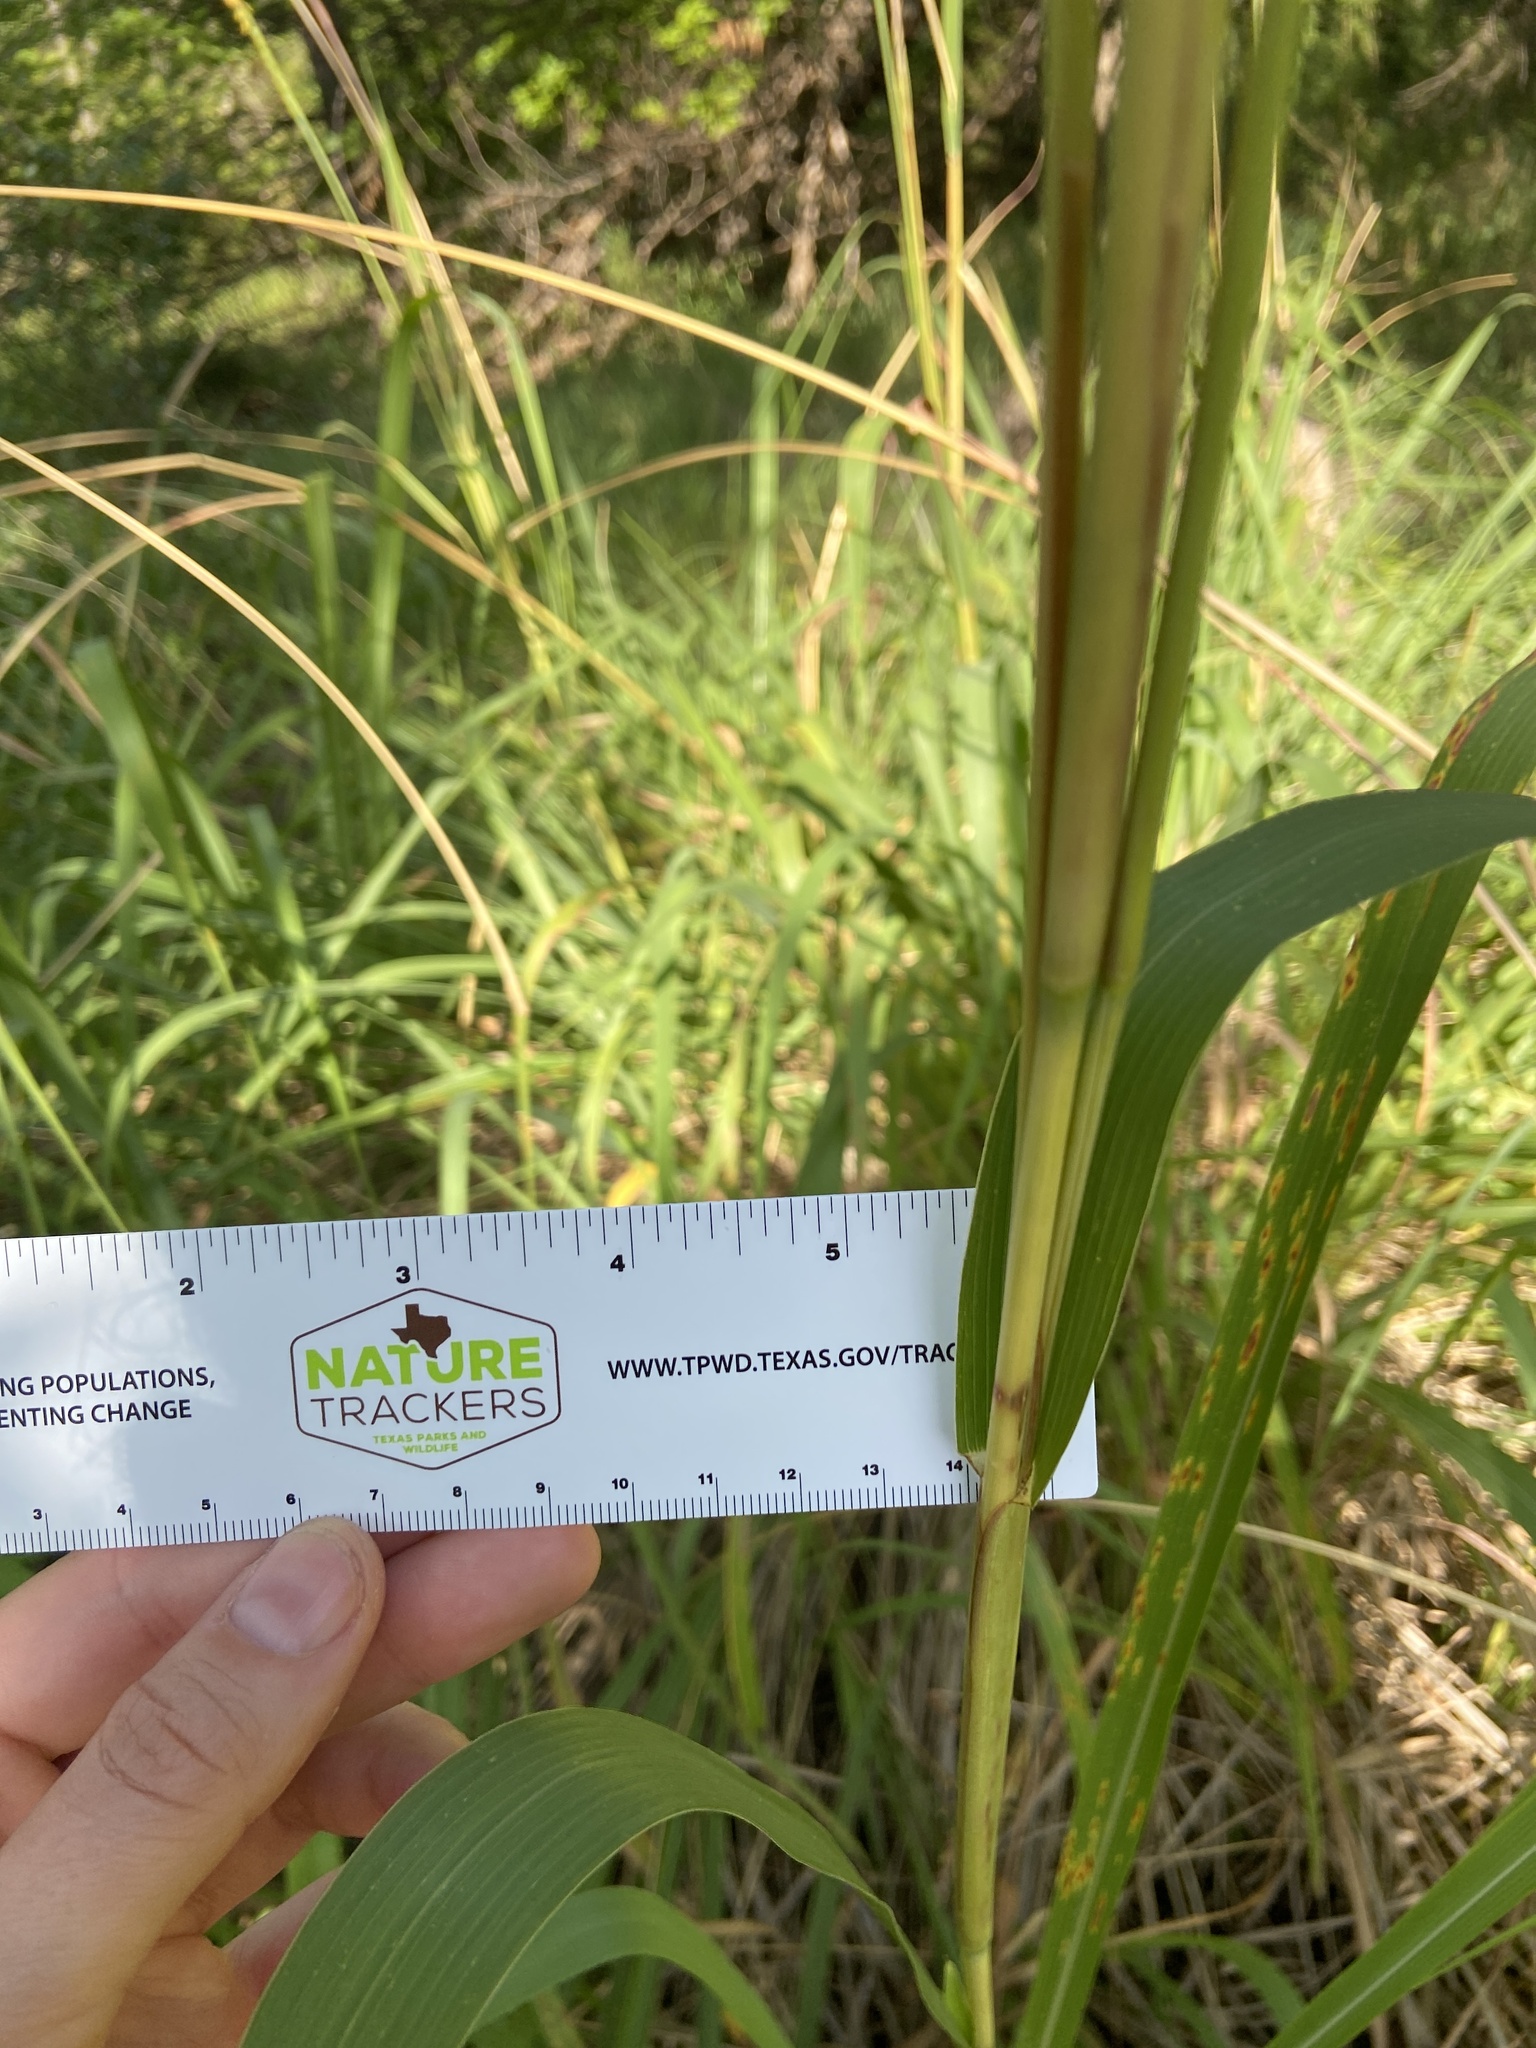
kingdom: Plantae
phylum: Tracheophyta
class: Liliopsida
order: Poales
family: Poaceae
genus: Tripsacum
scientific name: Tripsacum dactyloides
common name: Buffalo-grass
